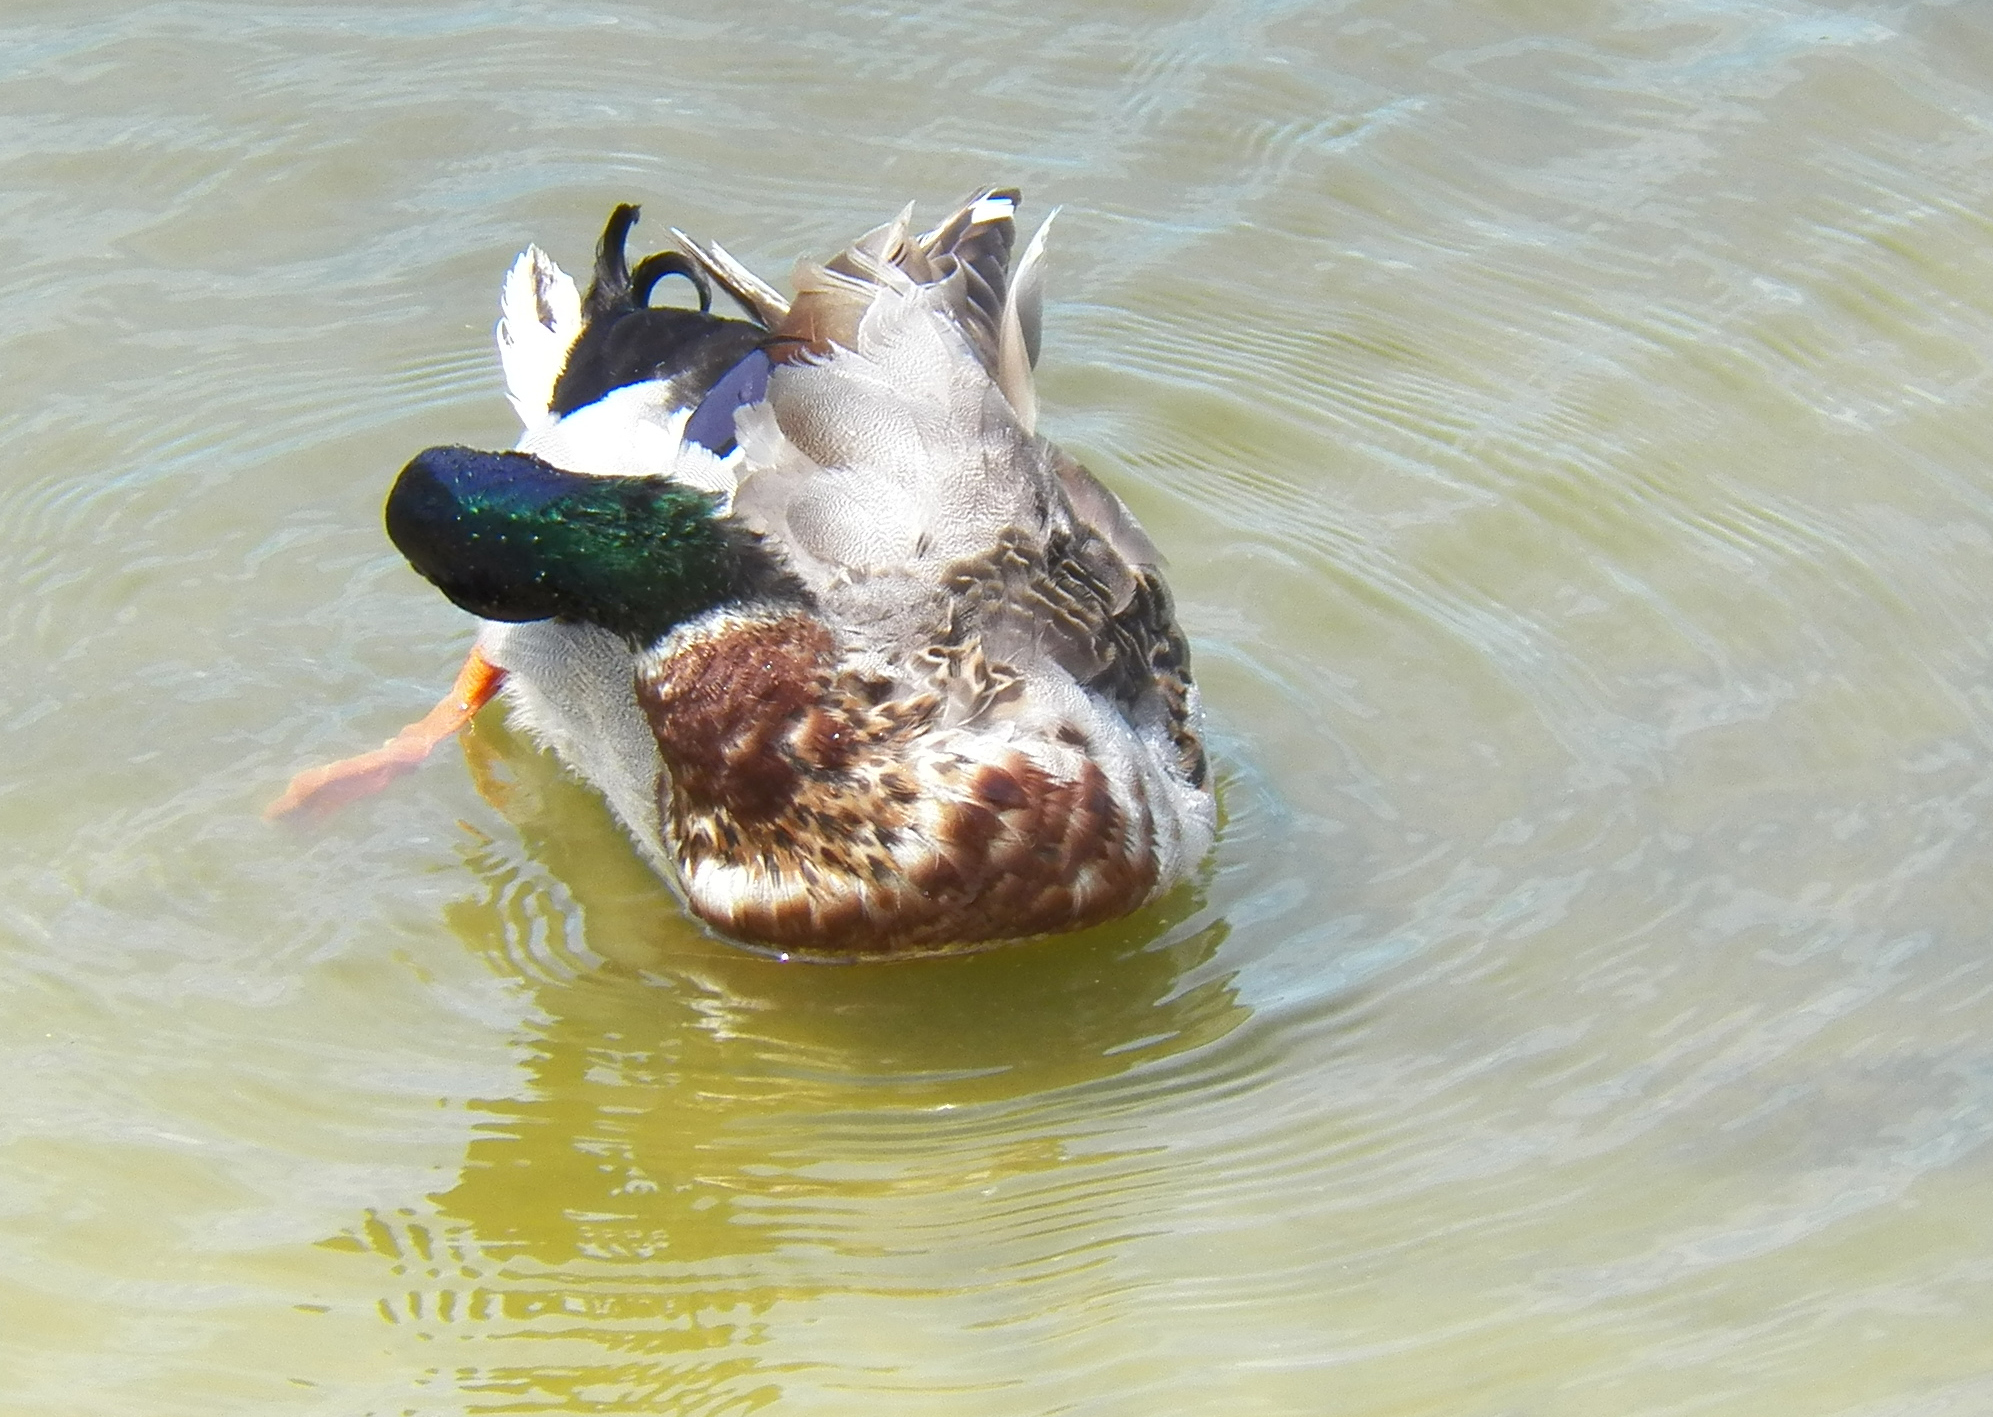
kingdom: Animalia
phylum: Chordata
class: Aves
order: Anseriformes
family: Anatidae
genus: Anas
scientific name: Anas platyrhynchos
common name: Mallard
